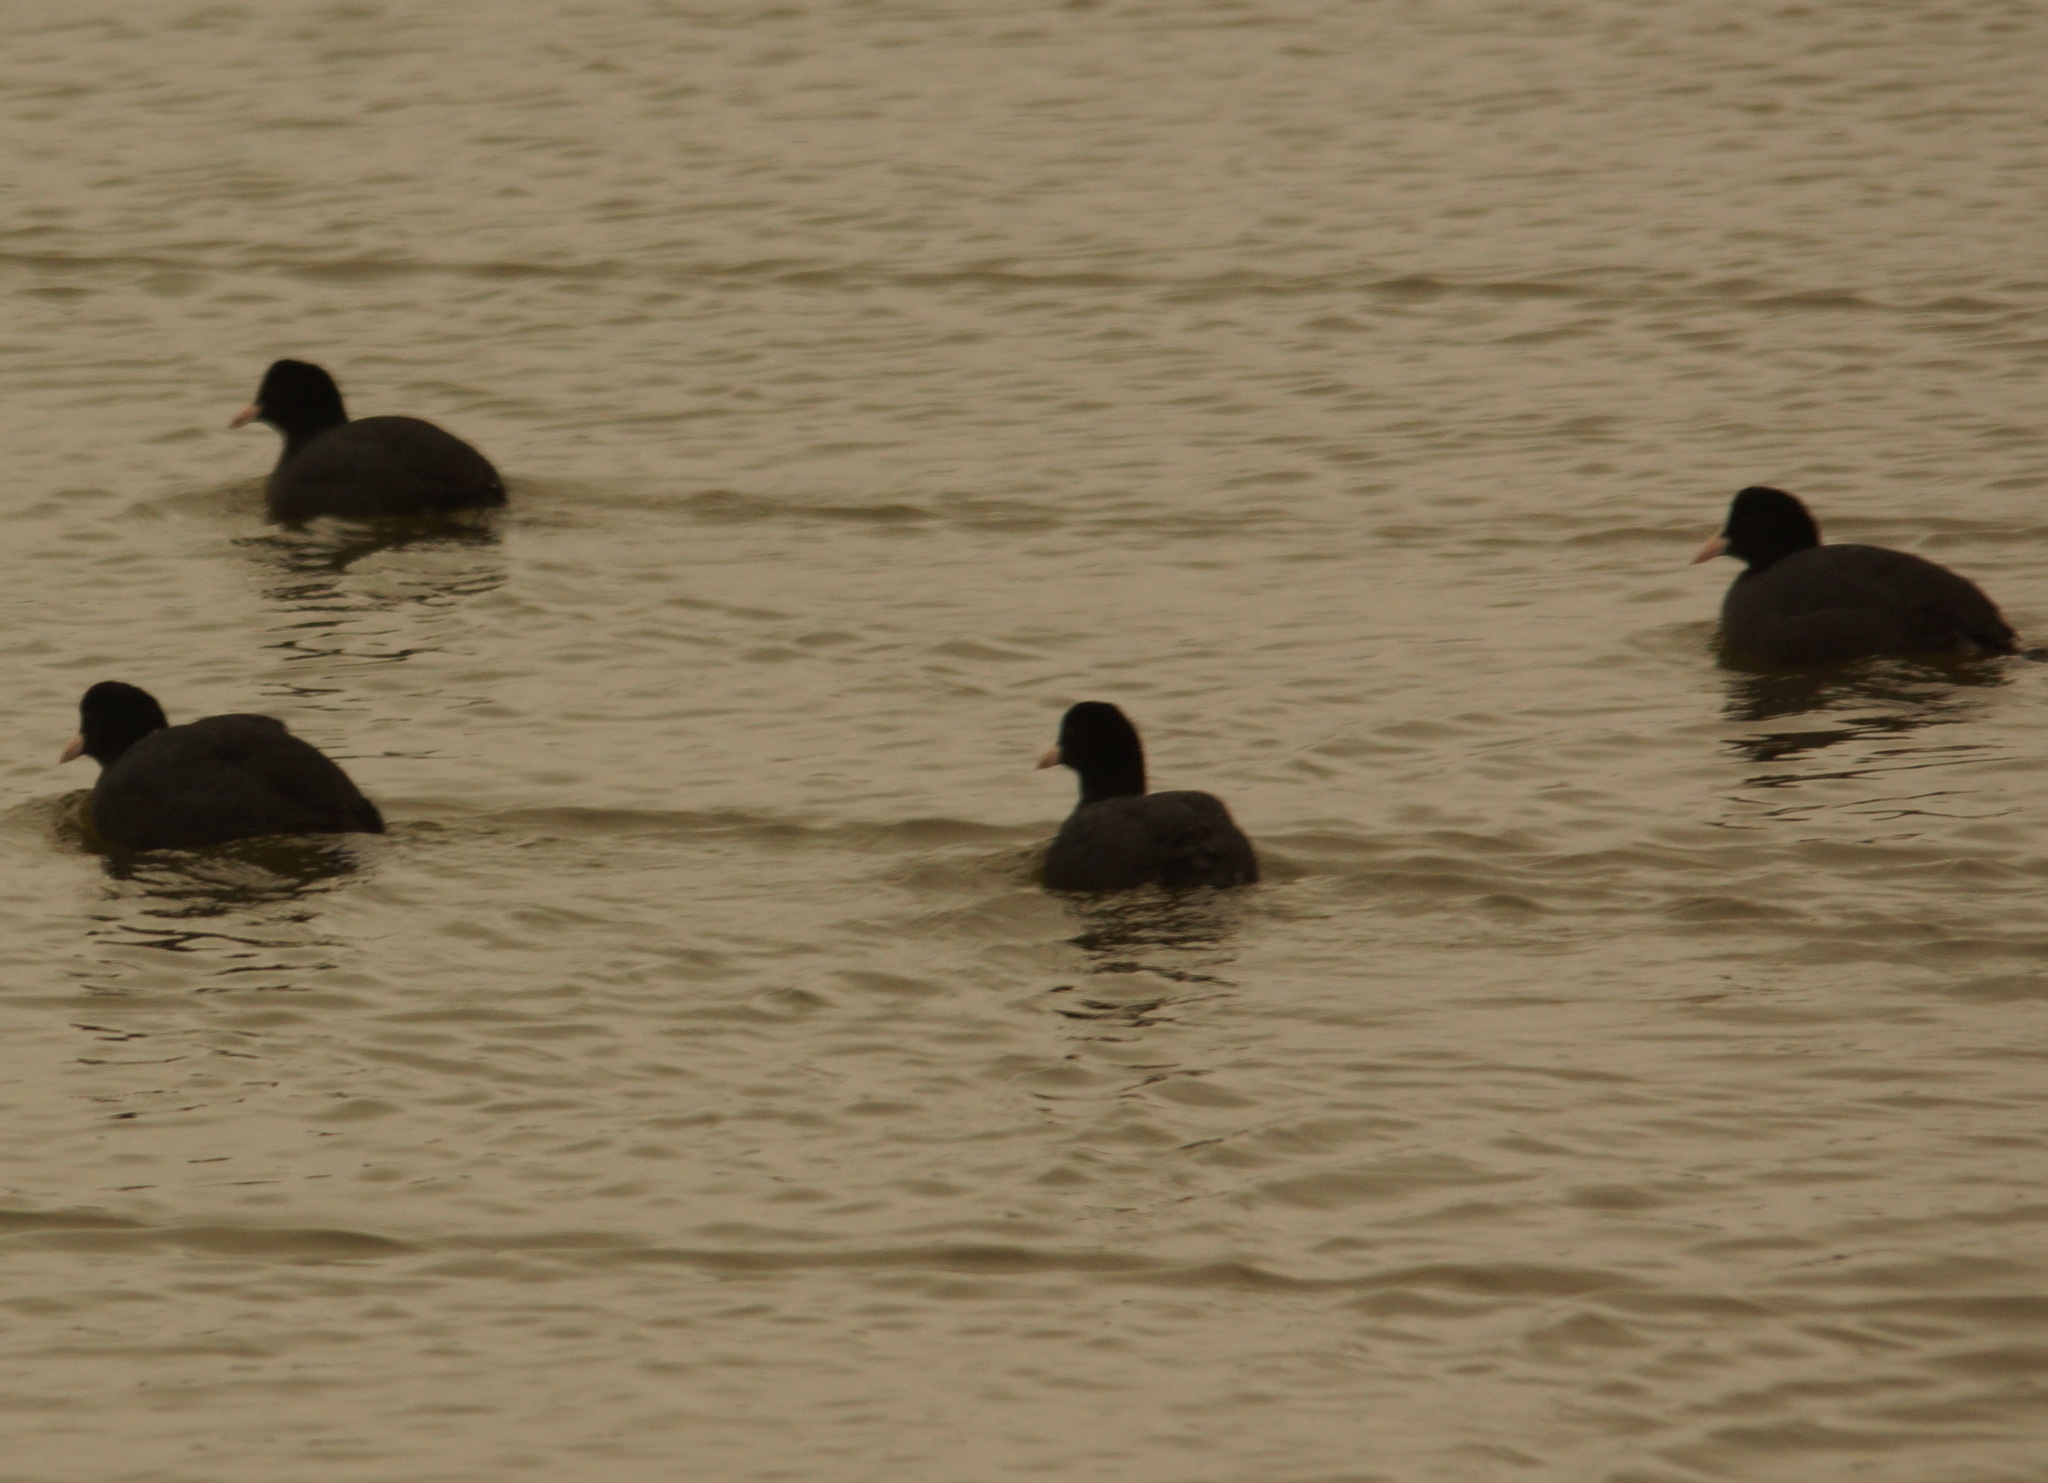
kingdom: Animalia
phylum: Chordata
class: Aves
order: Gruiformes
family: Rallidae
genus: Fulica
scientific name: Fulica atra
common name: Eurasian coot
